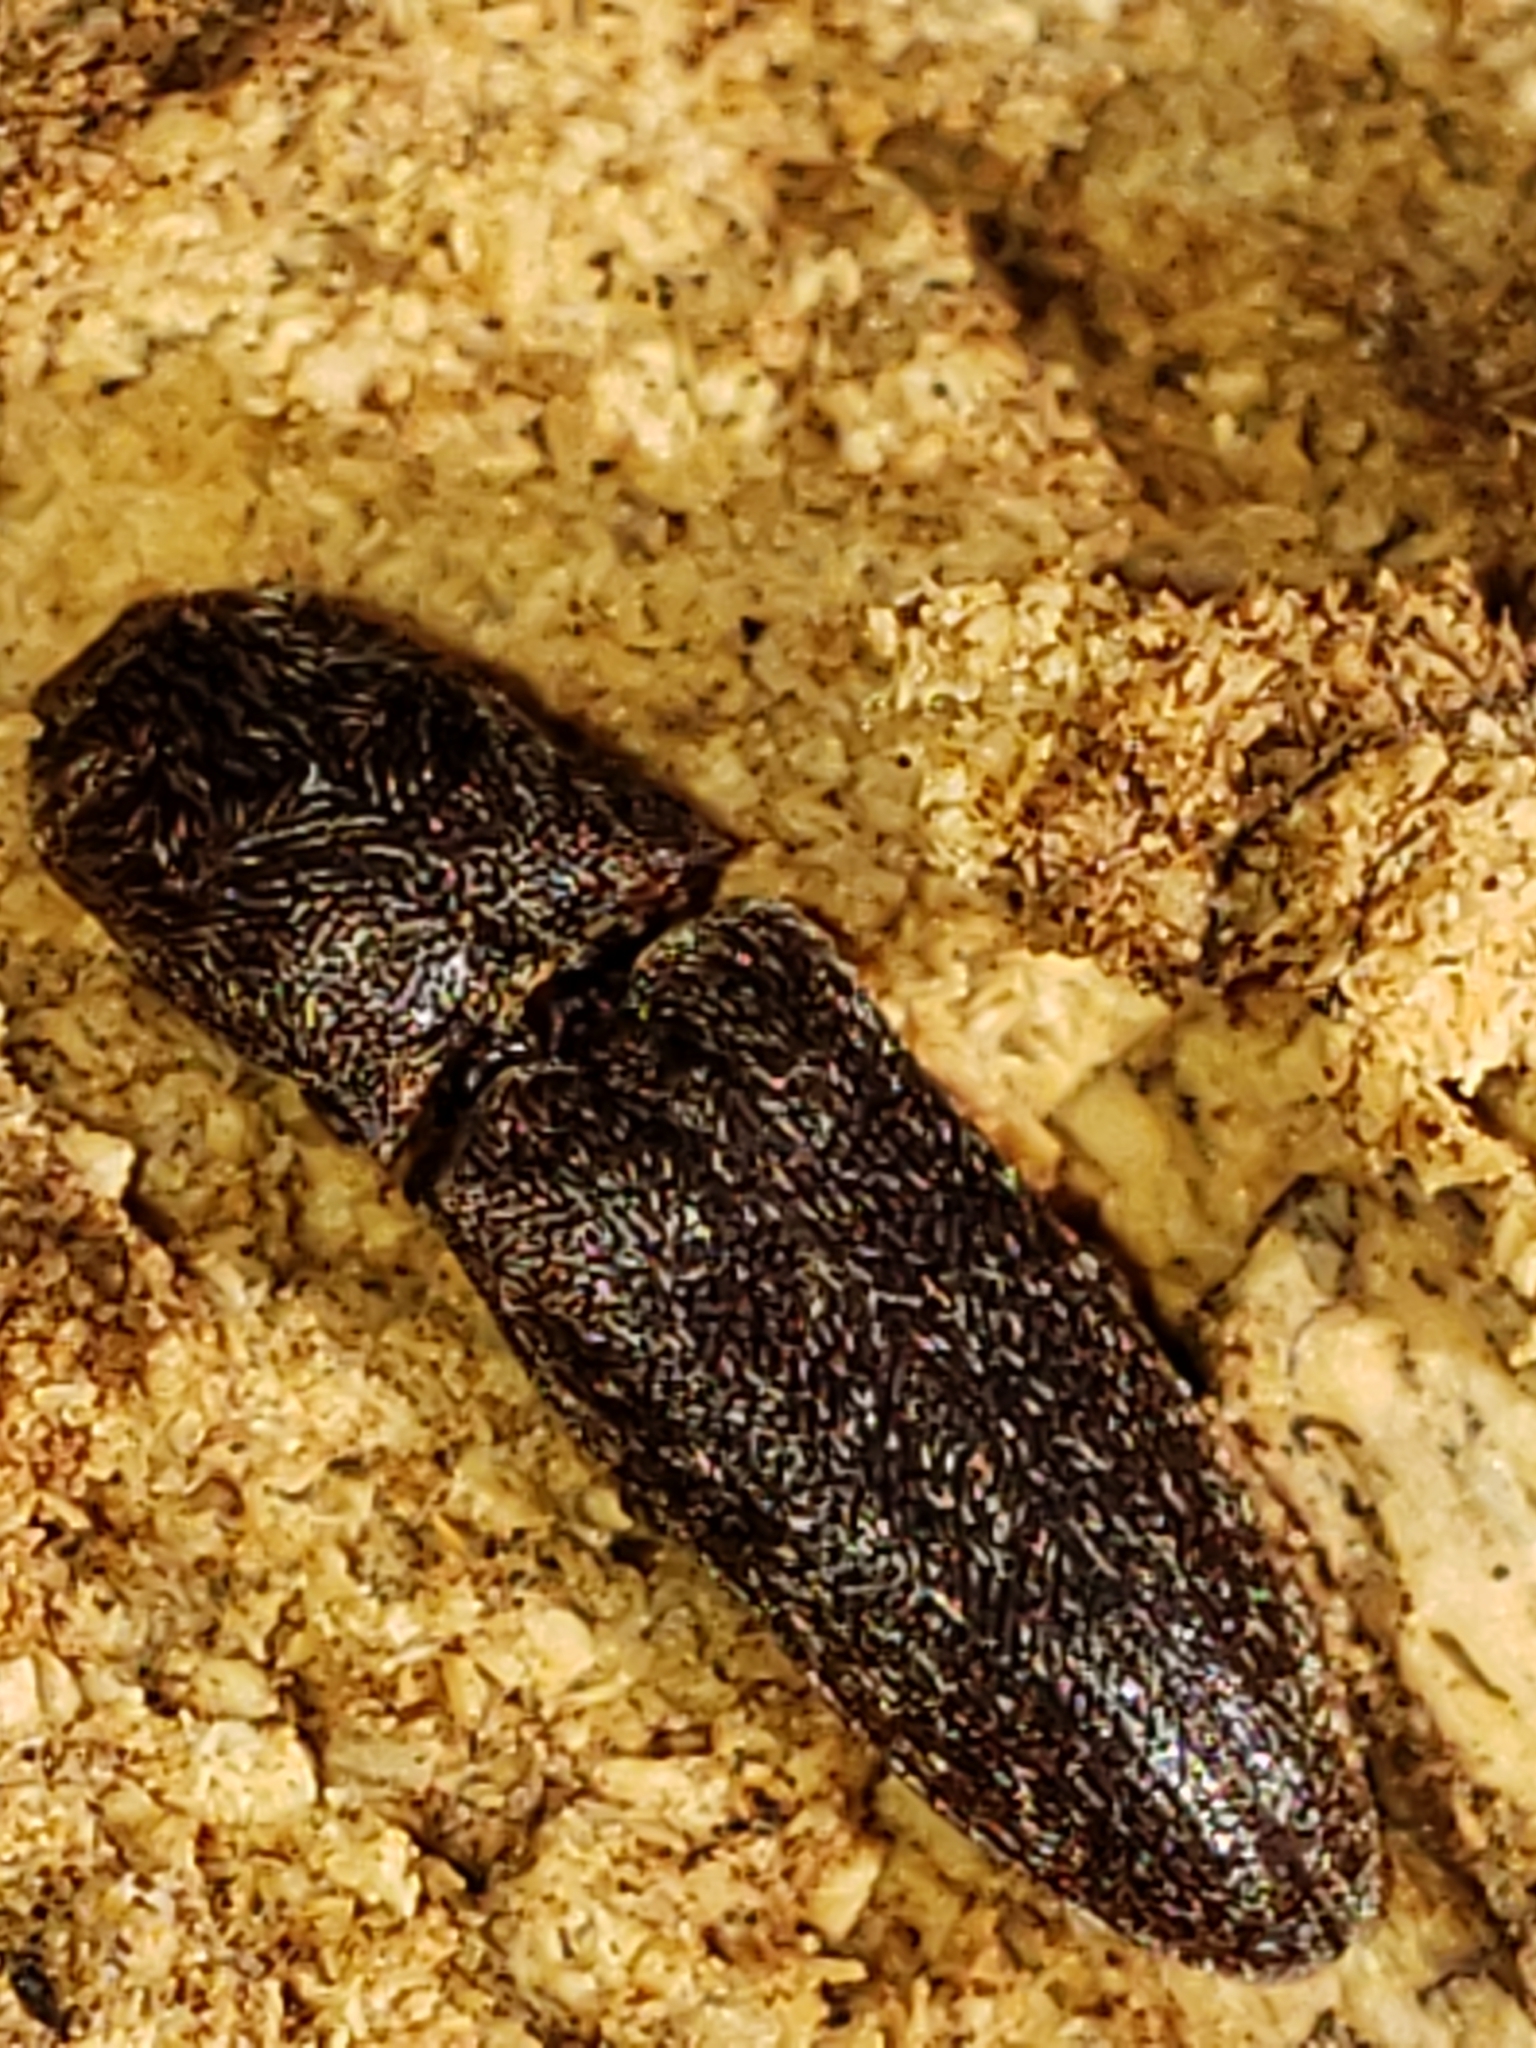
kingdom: Animalia
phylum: Arthropoda
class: Insecta
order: Coleoptera
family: Elateridae
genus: Lacon
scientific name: Lacon impressicollis
